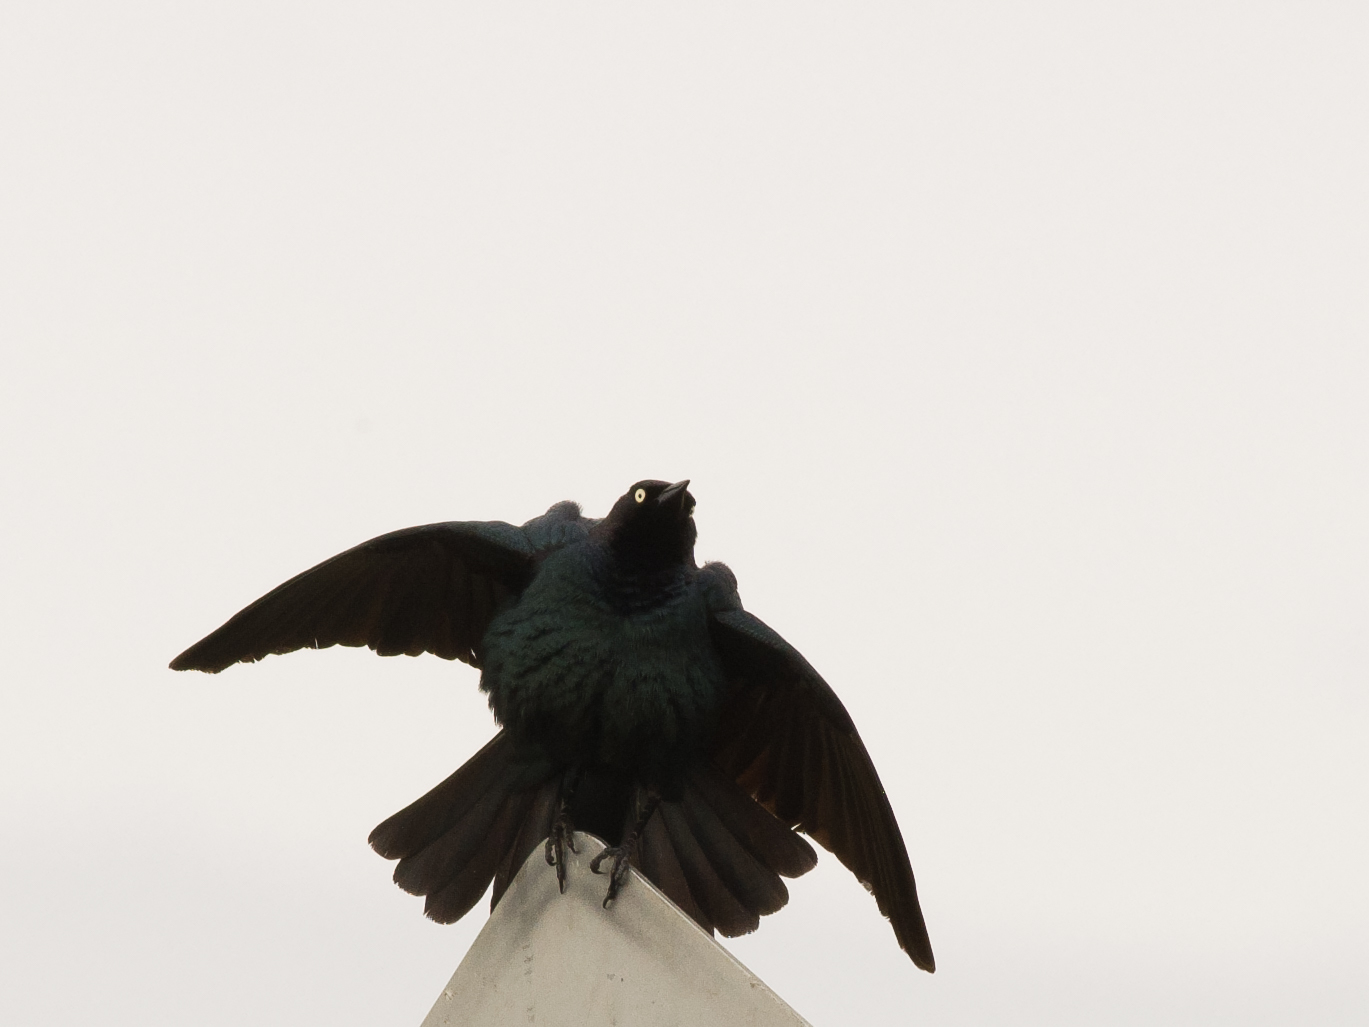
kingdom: Animalia
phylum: Chordata
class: Aves
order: Passeriformes
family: Icteridae
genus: Euphagus
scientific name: Euphagus cyanocephalus
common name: Brewer's blackbird
